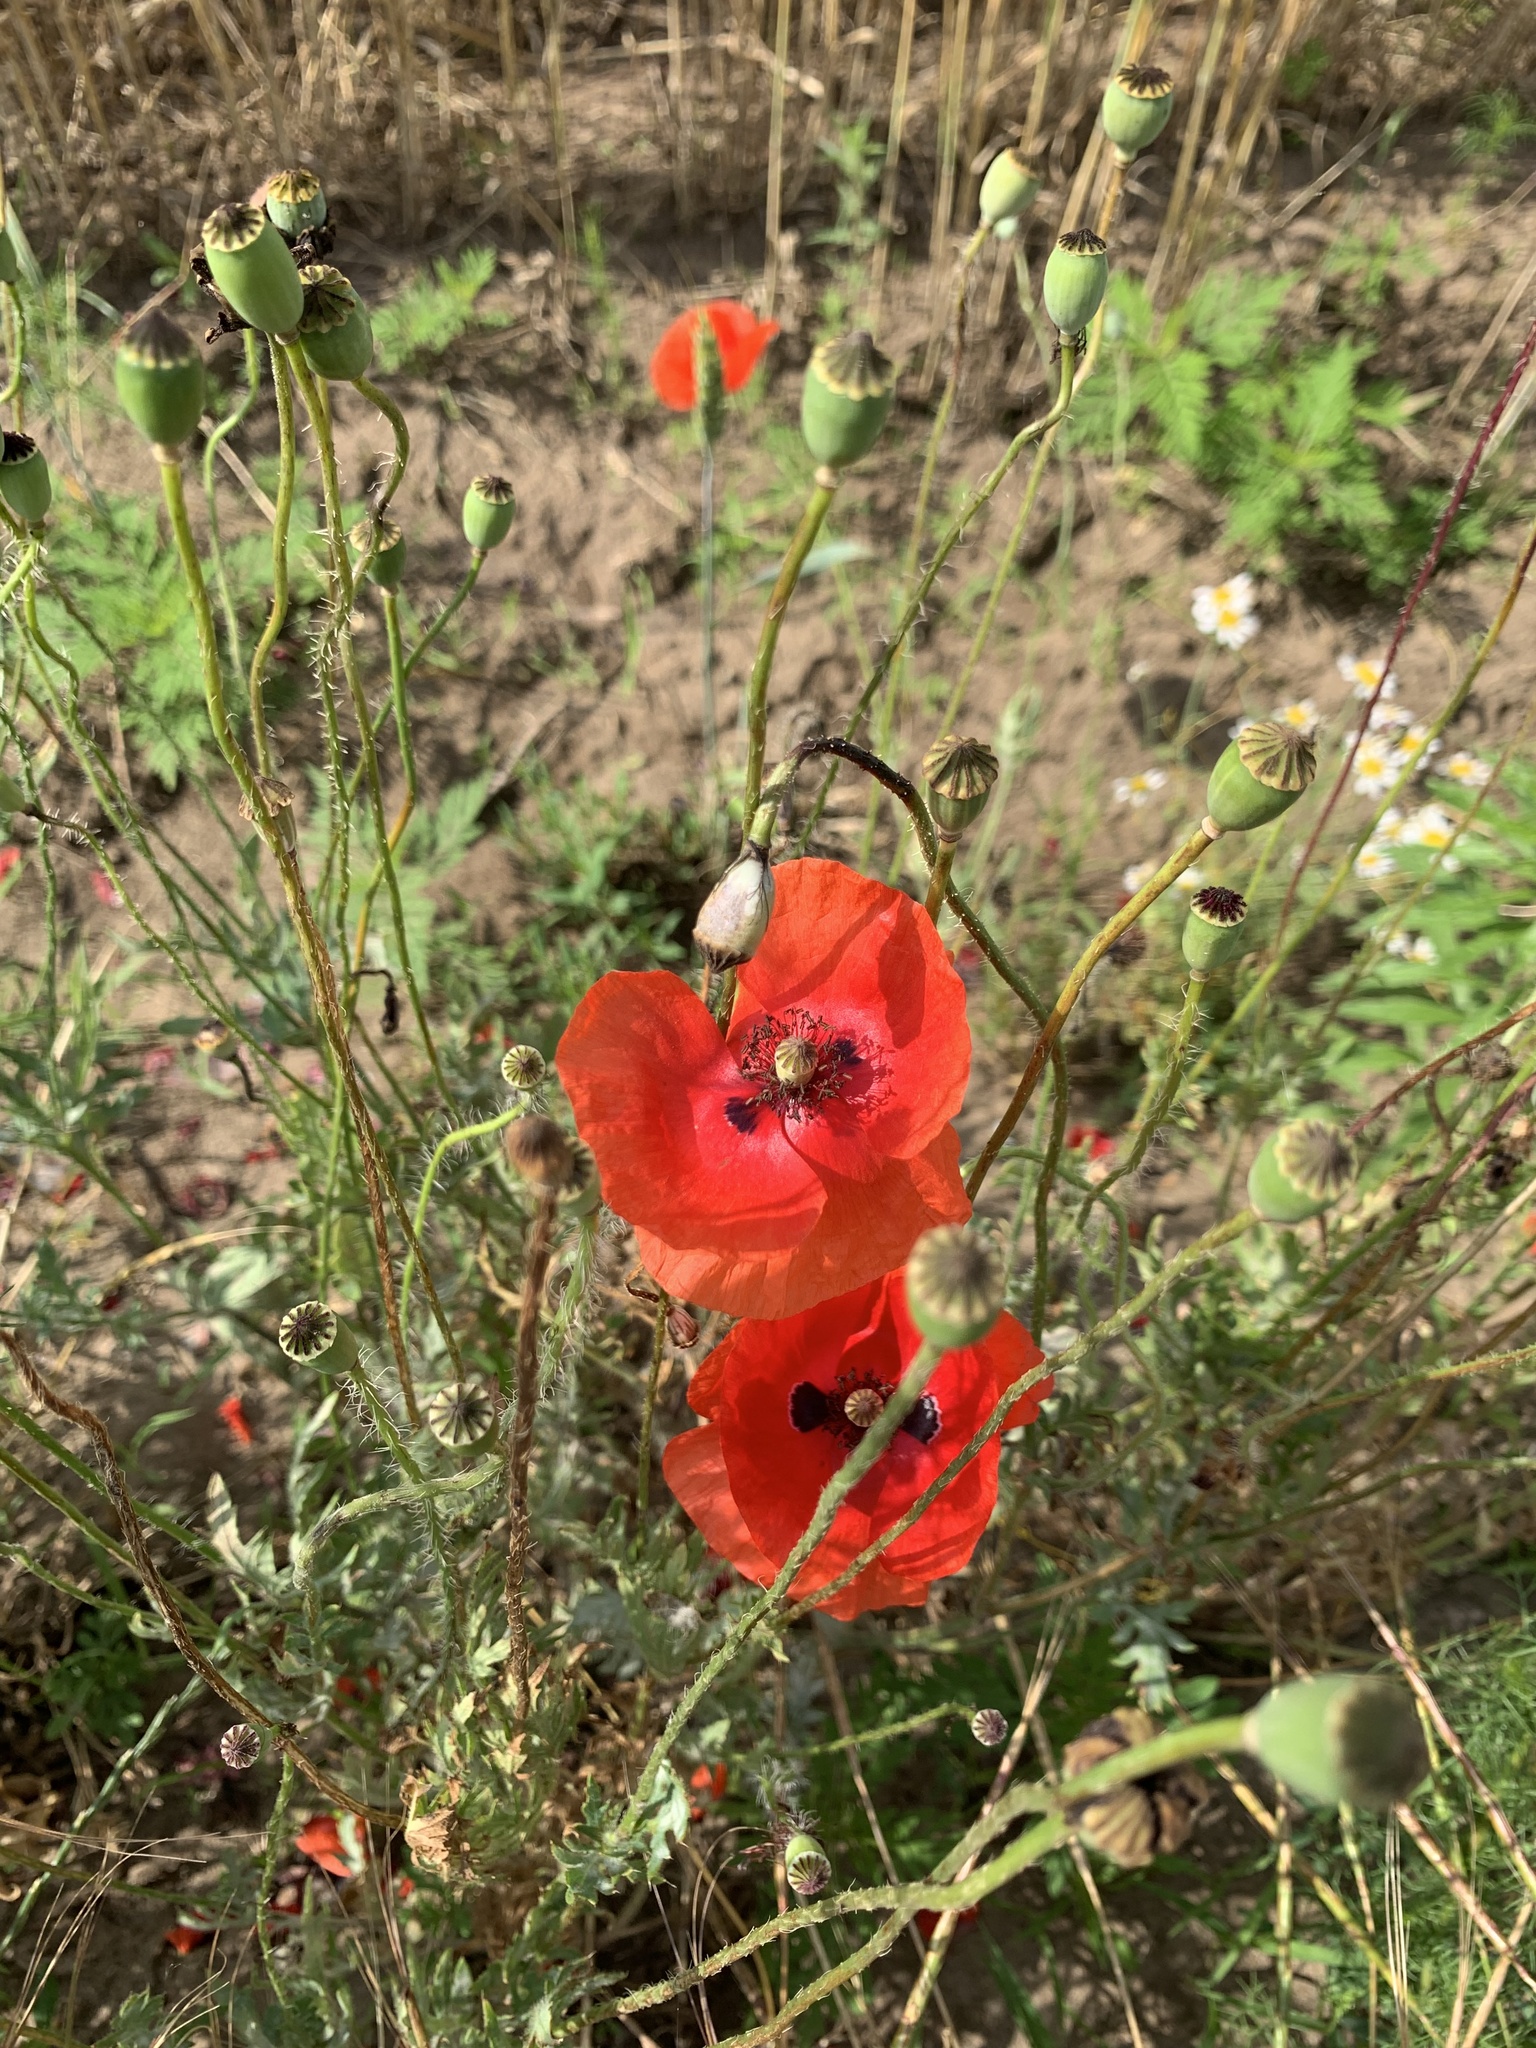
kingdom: Plantae
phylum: Tracheophyta
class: Magnoliopsida
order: Ranunculales
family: Papaveraceae
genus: Papaver
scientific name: Papaver rhoeas
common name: Corn poppy
